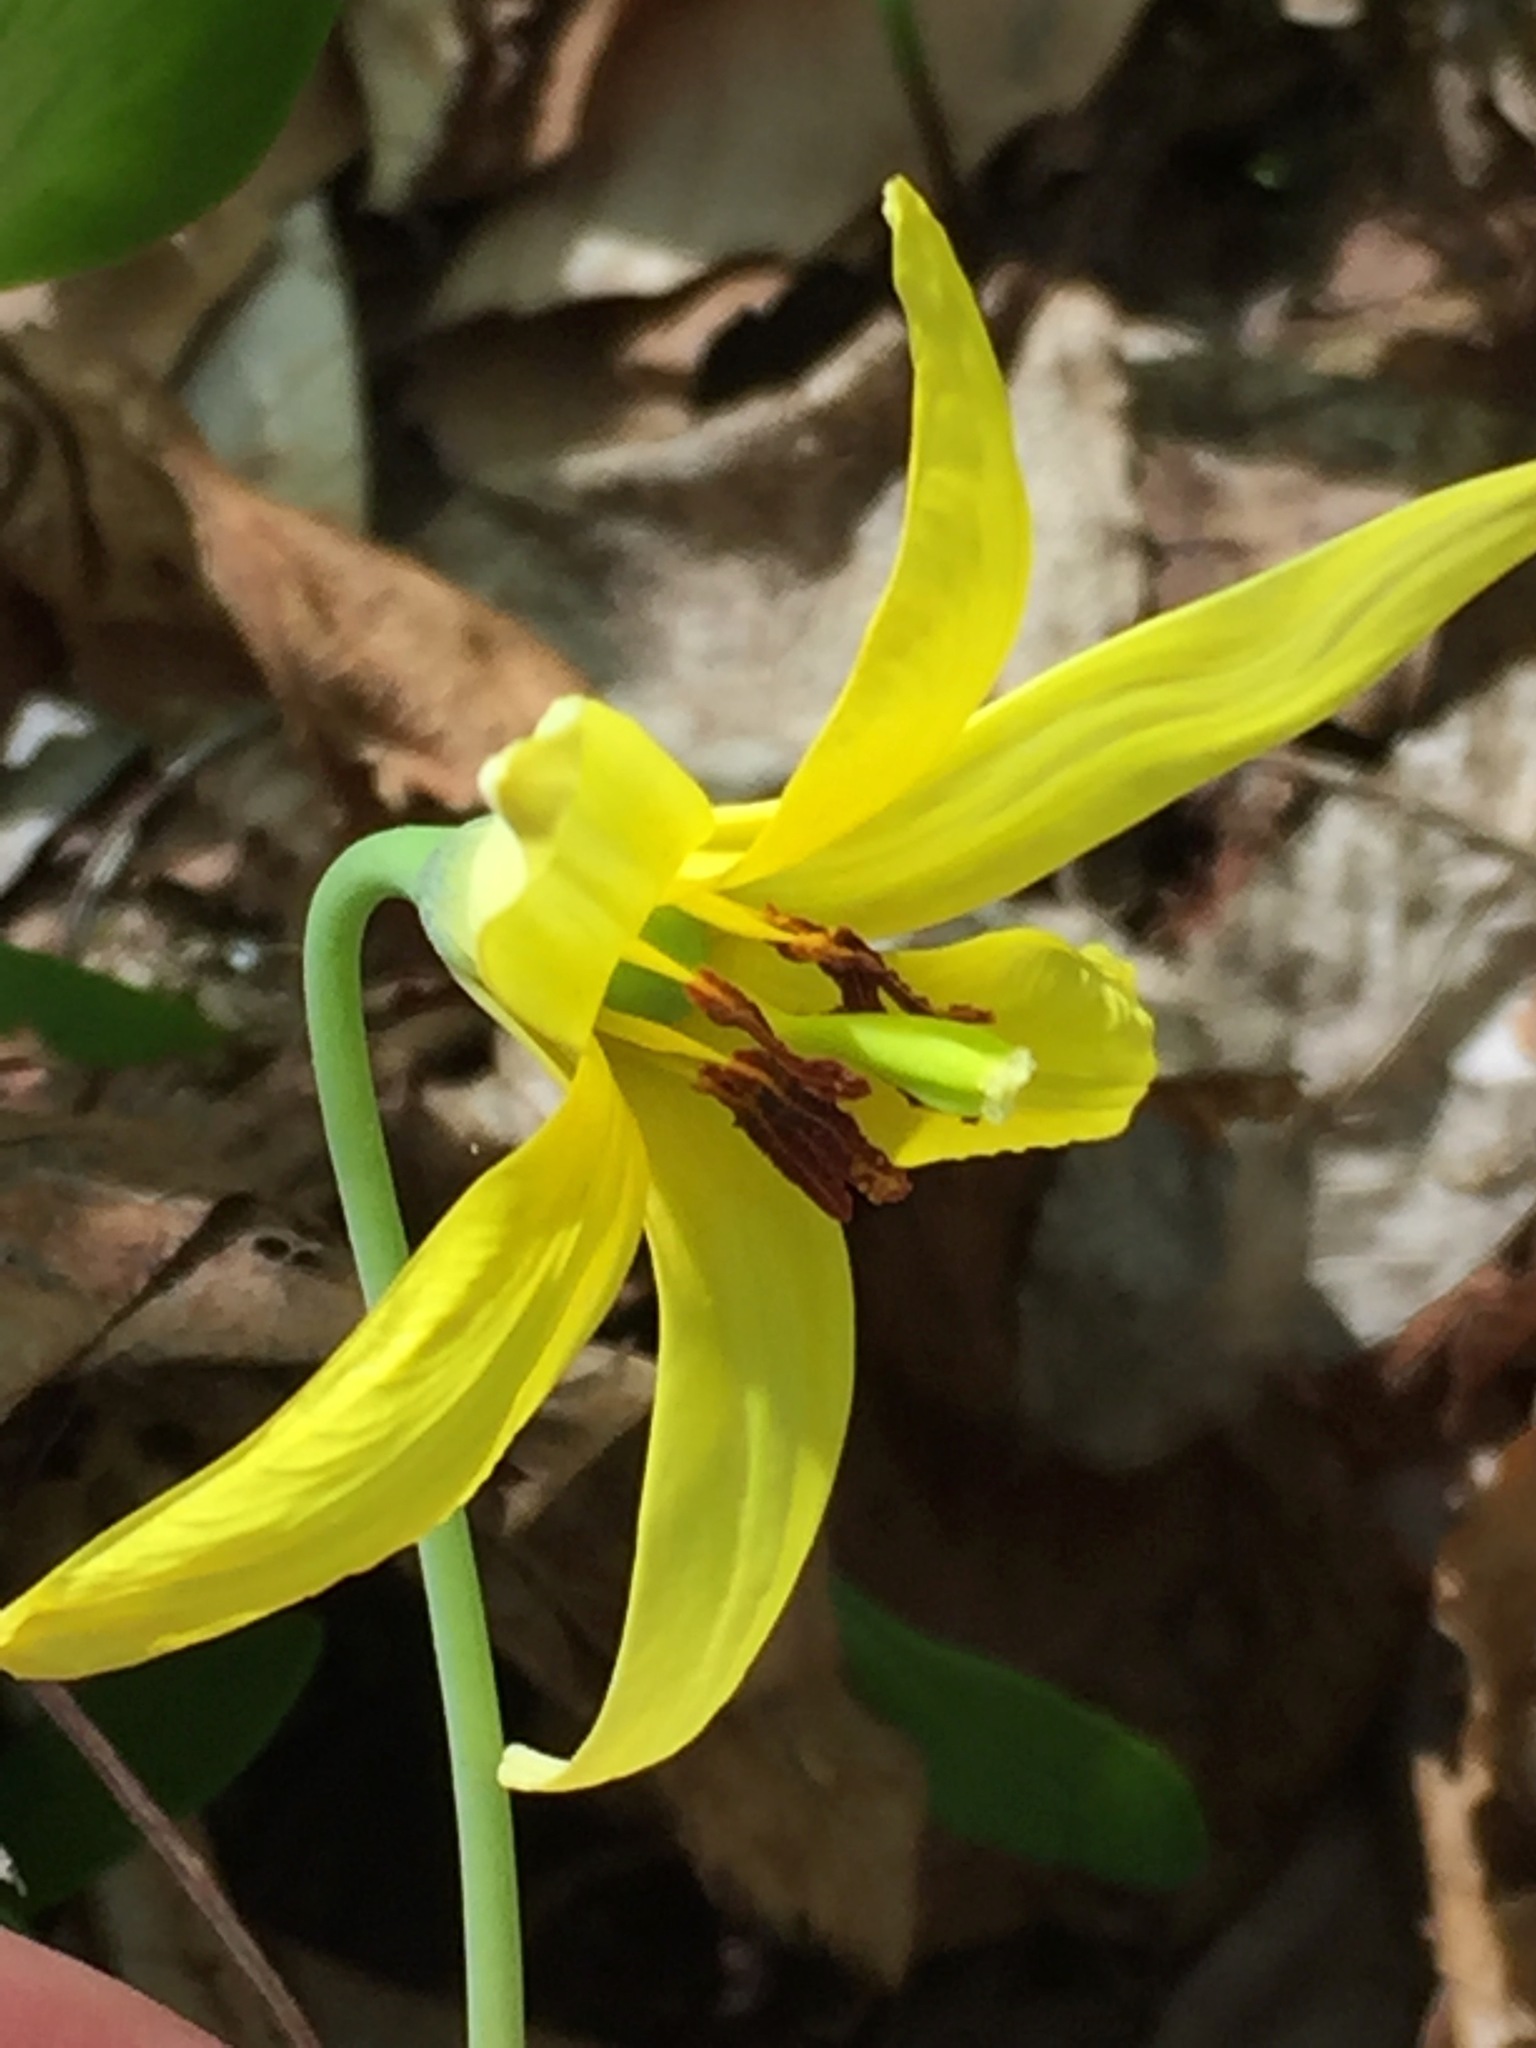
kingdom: Plantae
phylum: Tracheophyta
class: Liliopsida
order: Liliales
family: Liliaceae
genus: Erythronium
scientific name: Erythronium americanum
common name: Yellow adder's-tongue
